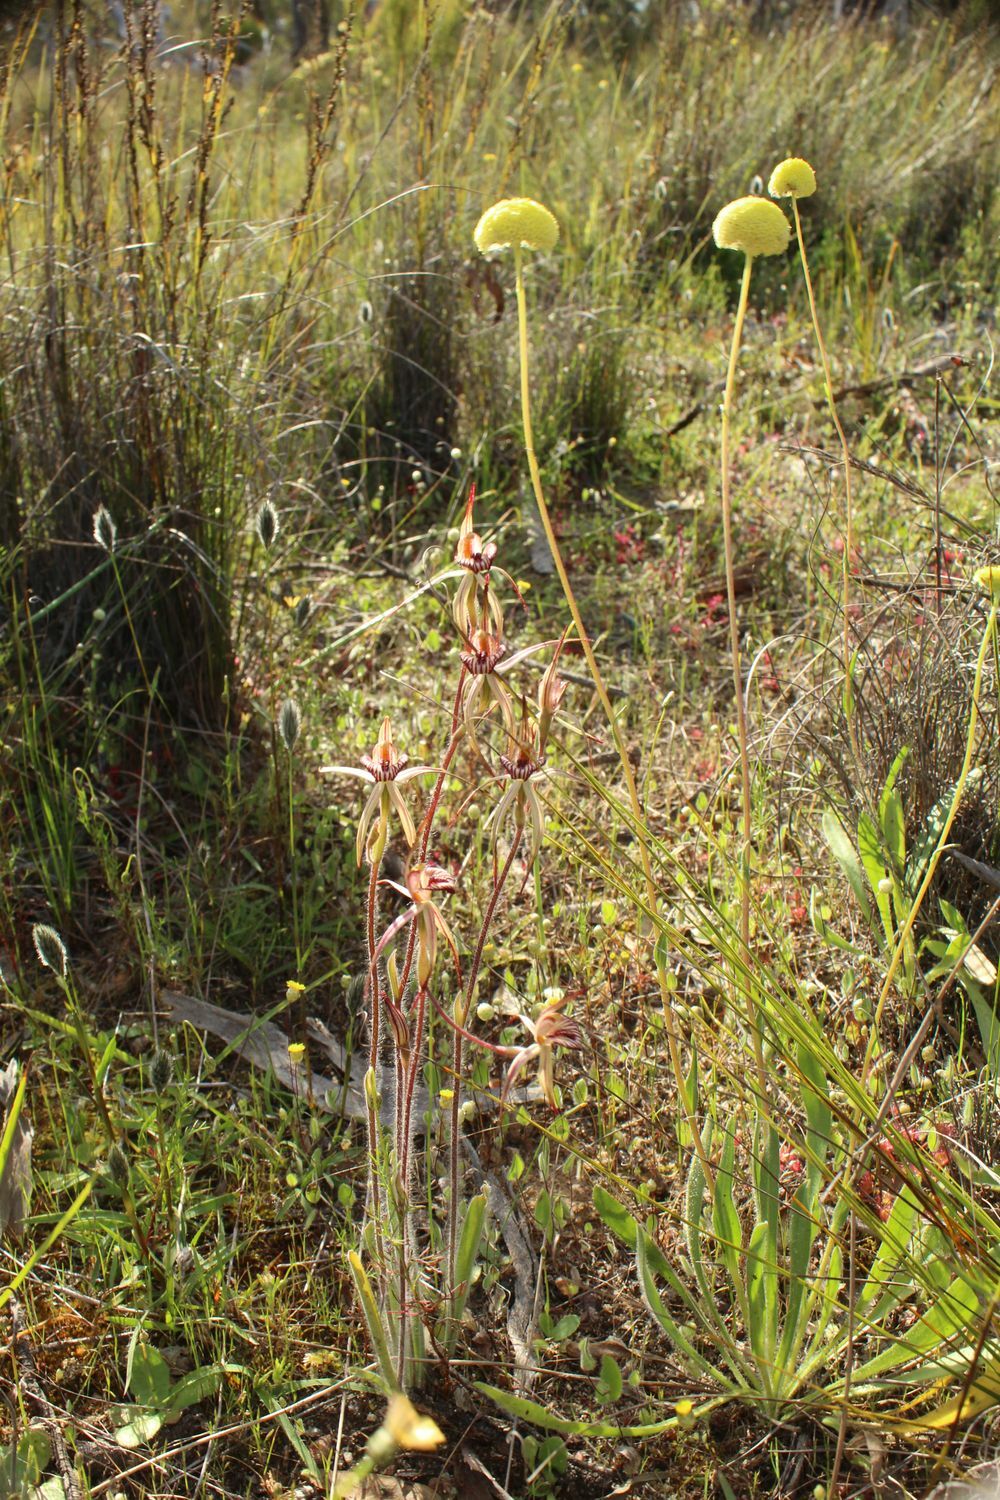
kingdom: Plantae
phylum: Tracheophyta
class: Liliopsida
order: Asparagales
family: Orchidaceae
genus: Caladenia
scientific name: Caladenia ericksoniae
